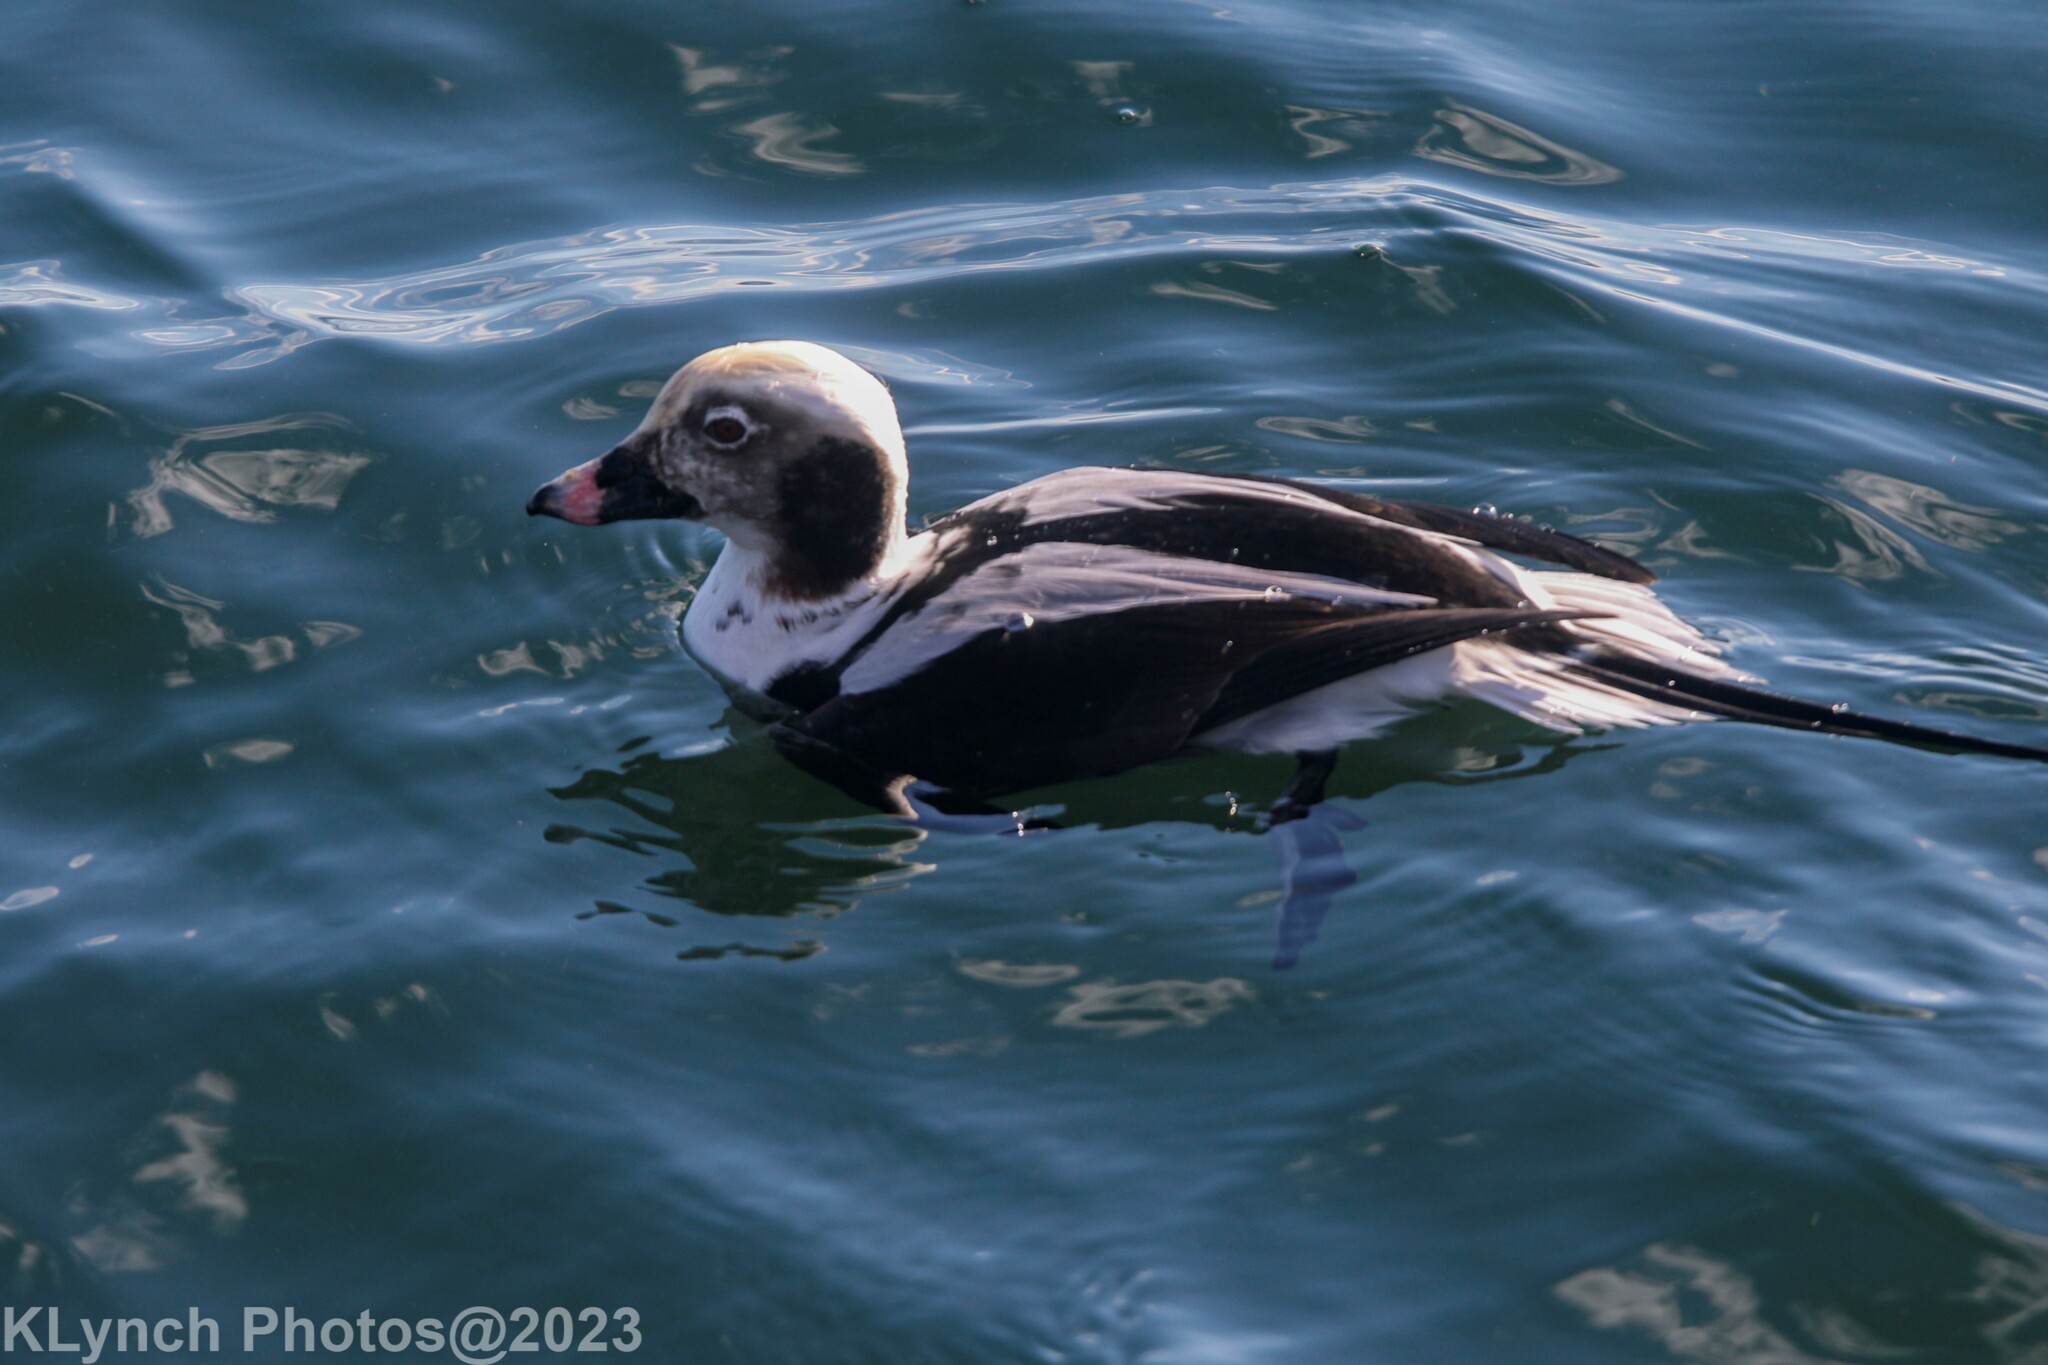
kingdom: Animalia
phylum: Chordata
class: Aves
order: Anseriformes
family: Anatidae
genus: Clangula
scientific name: Clangula hyemalis
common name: Long-tailed duck
